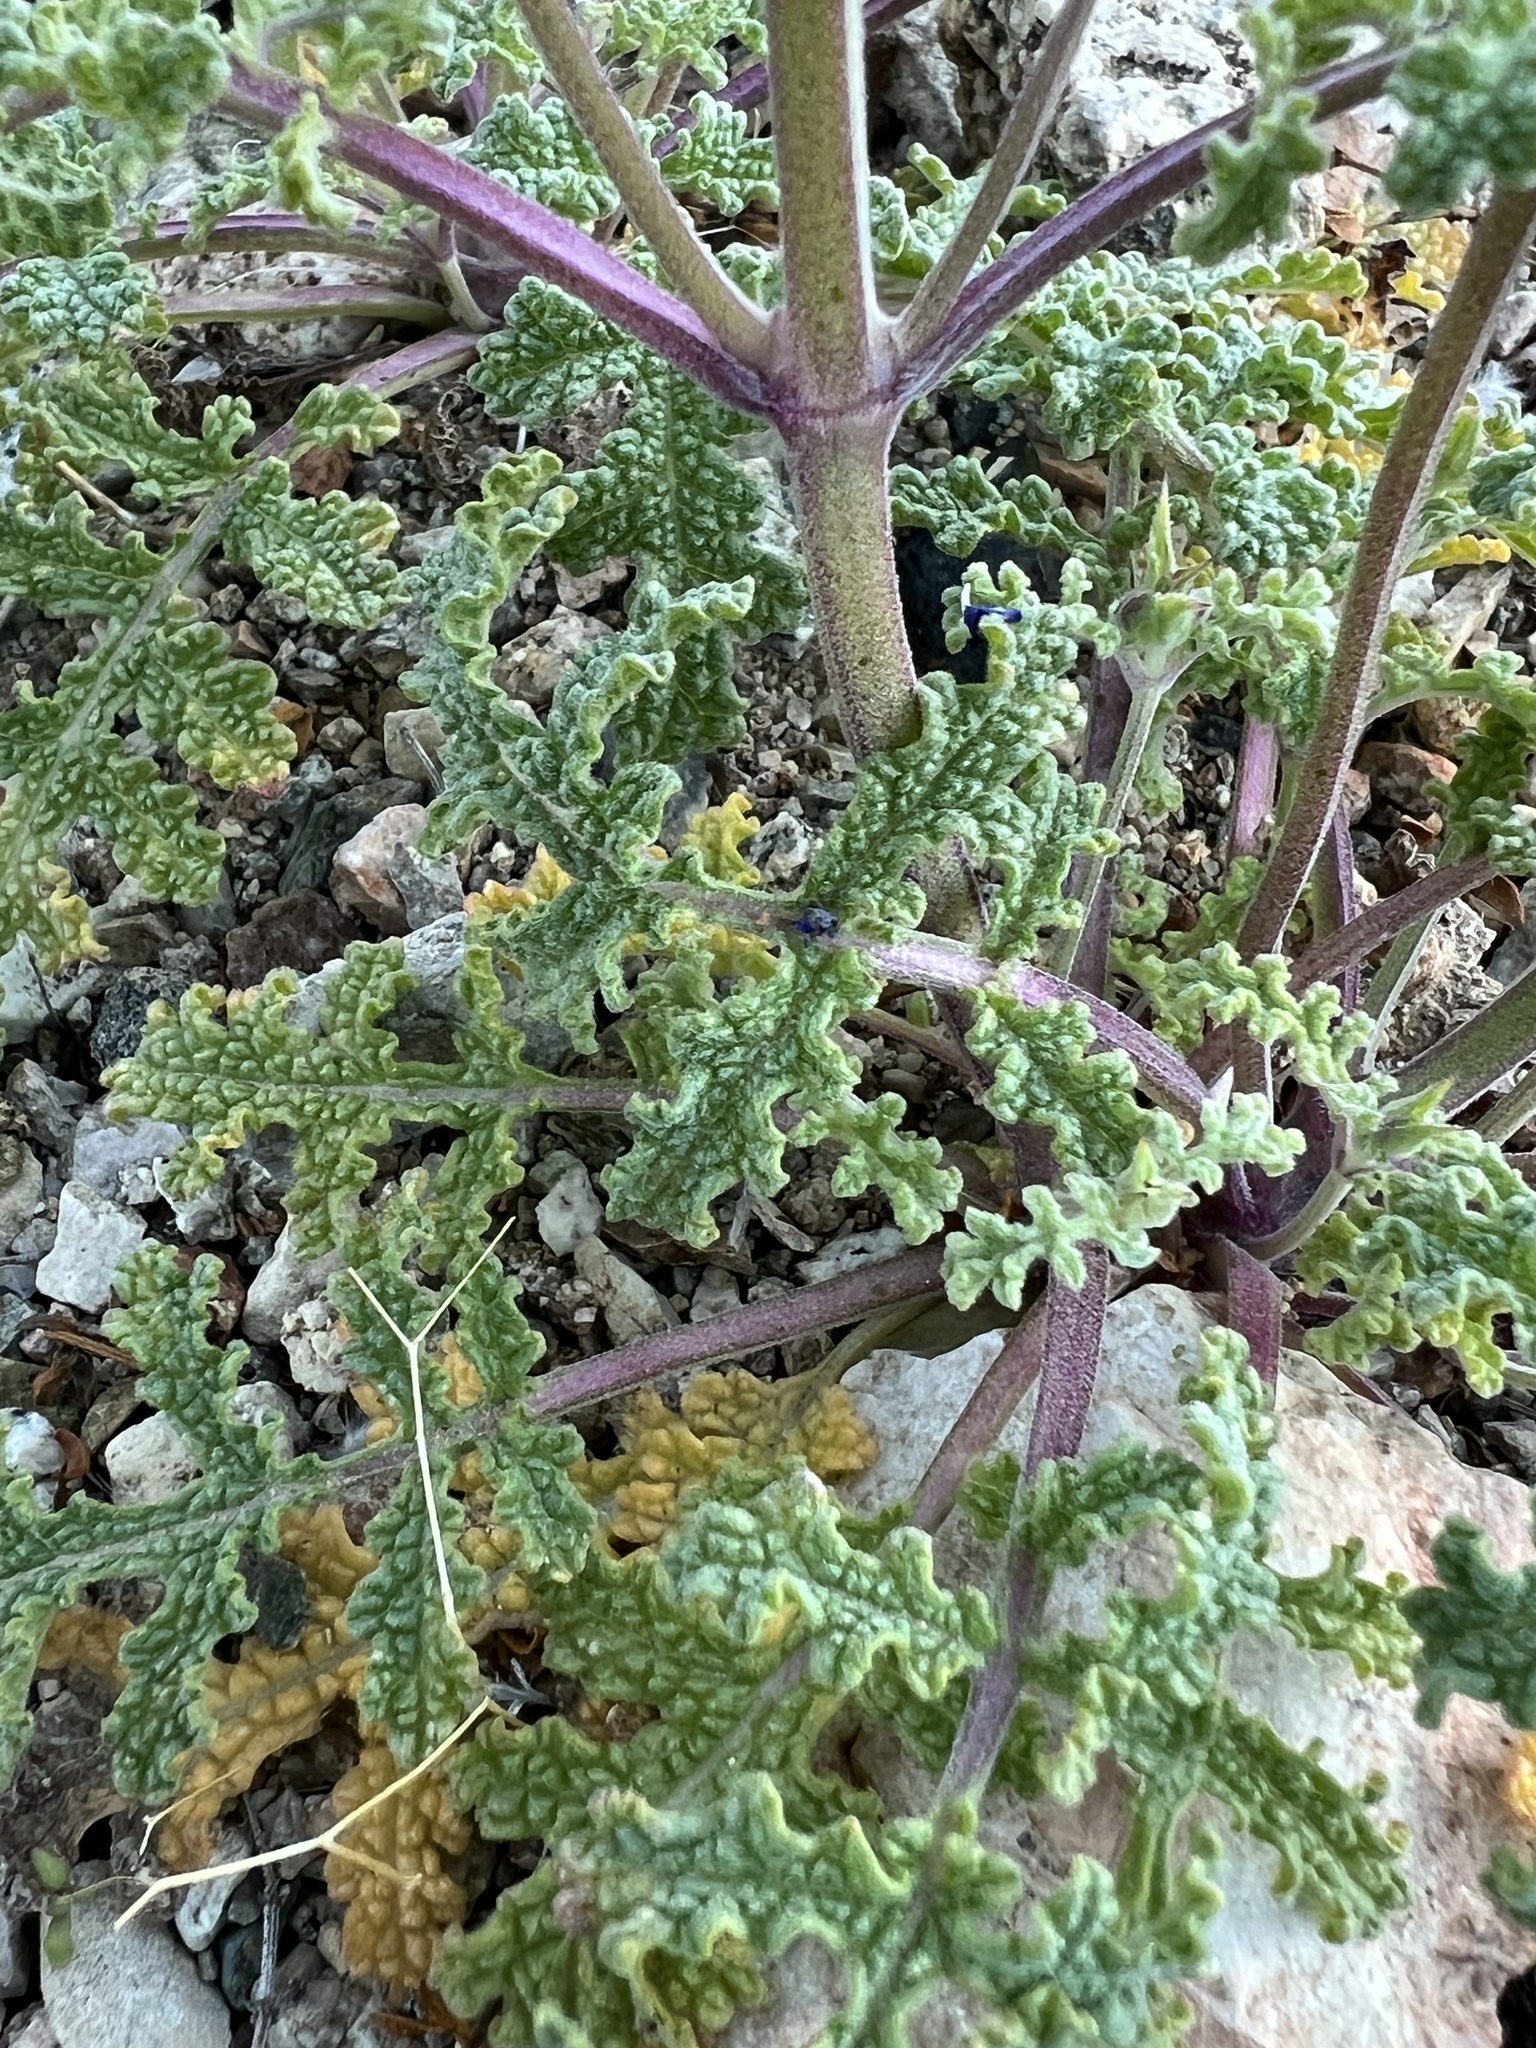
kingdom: Plantae
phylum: Tracheophyta
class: Magnoliopsida
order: Lamiales
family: Lamiaceae
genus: Salvia
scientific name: Salvia columbariae
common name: Chia
